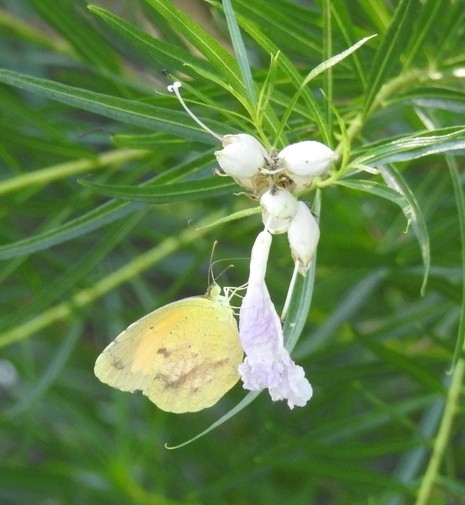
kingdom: Animalia
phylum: Arthropoda
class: Insecta
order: Lepidoptera
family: Pieridae
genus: Abaeis
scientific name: Abaeis nicippe
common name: Sleepy orange
